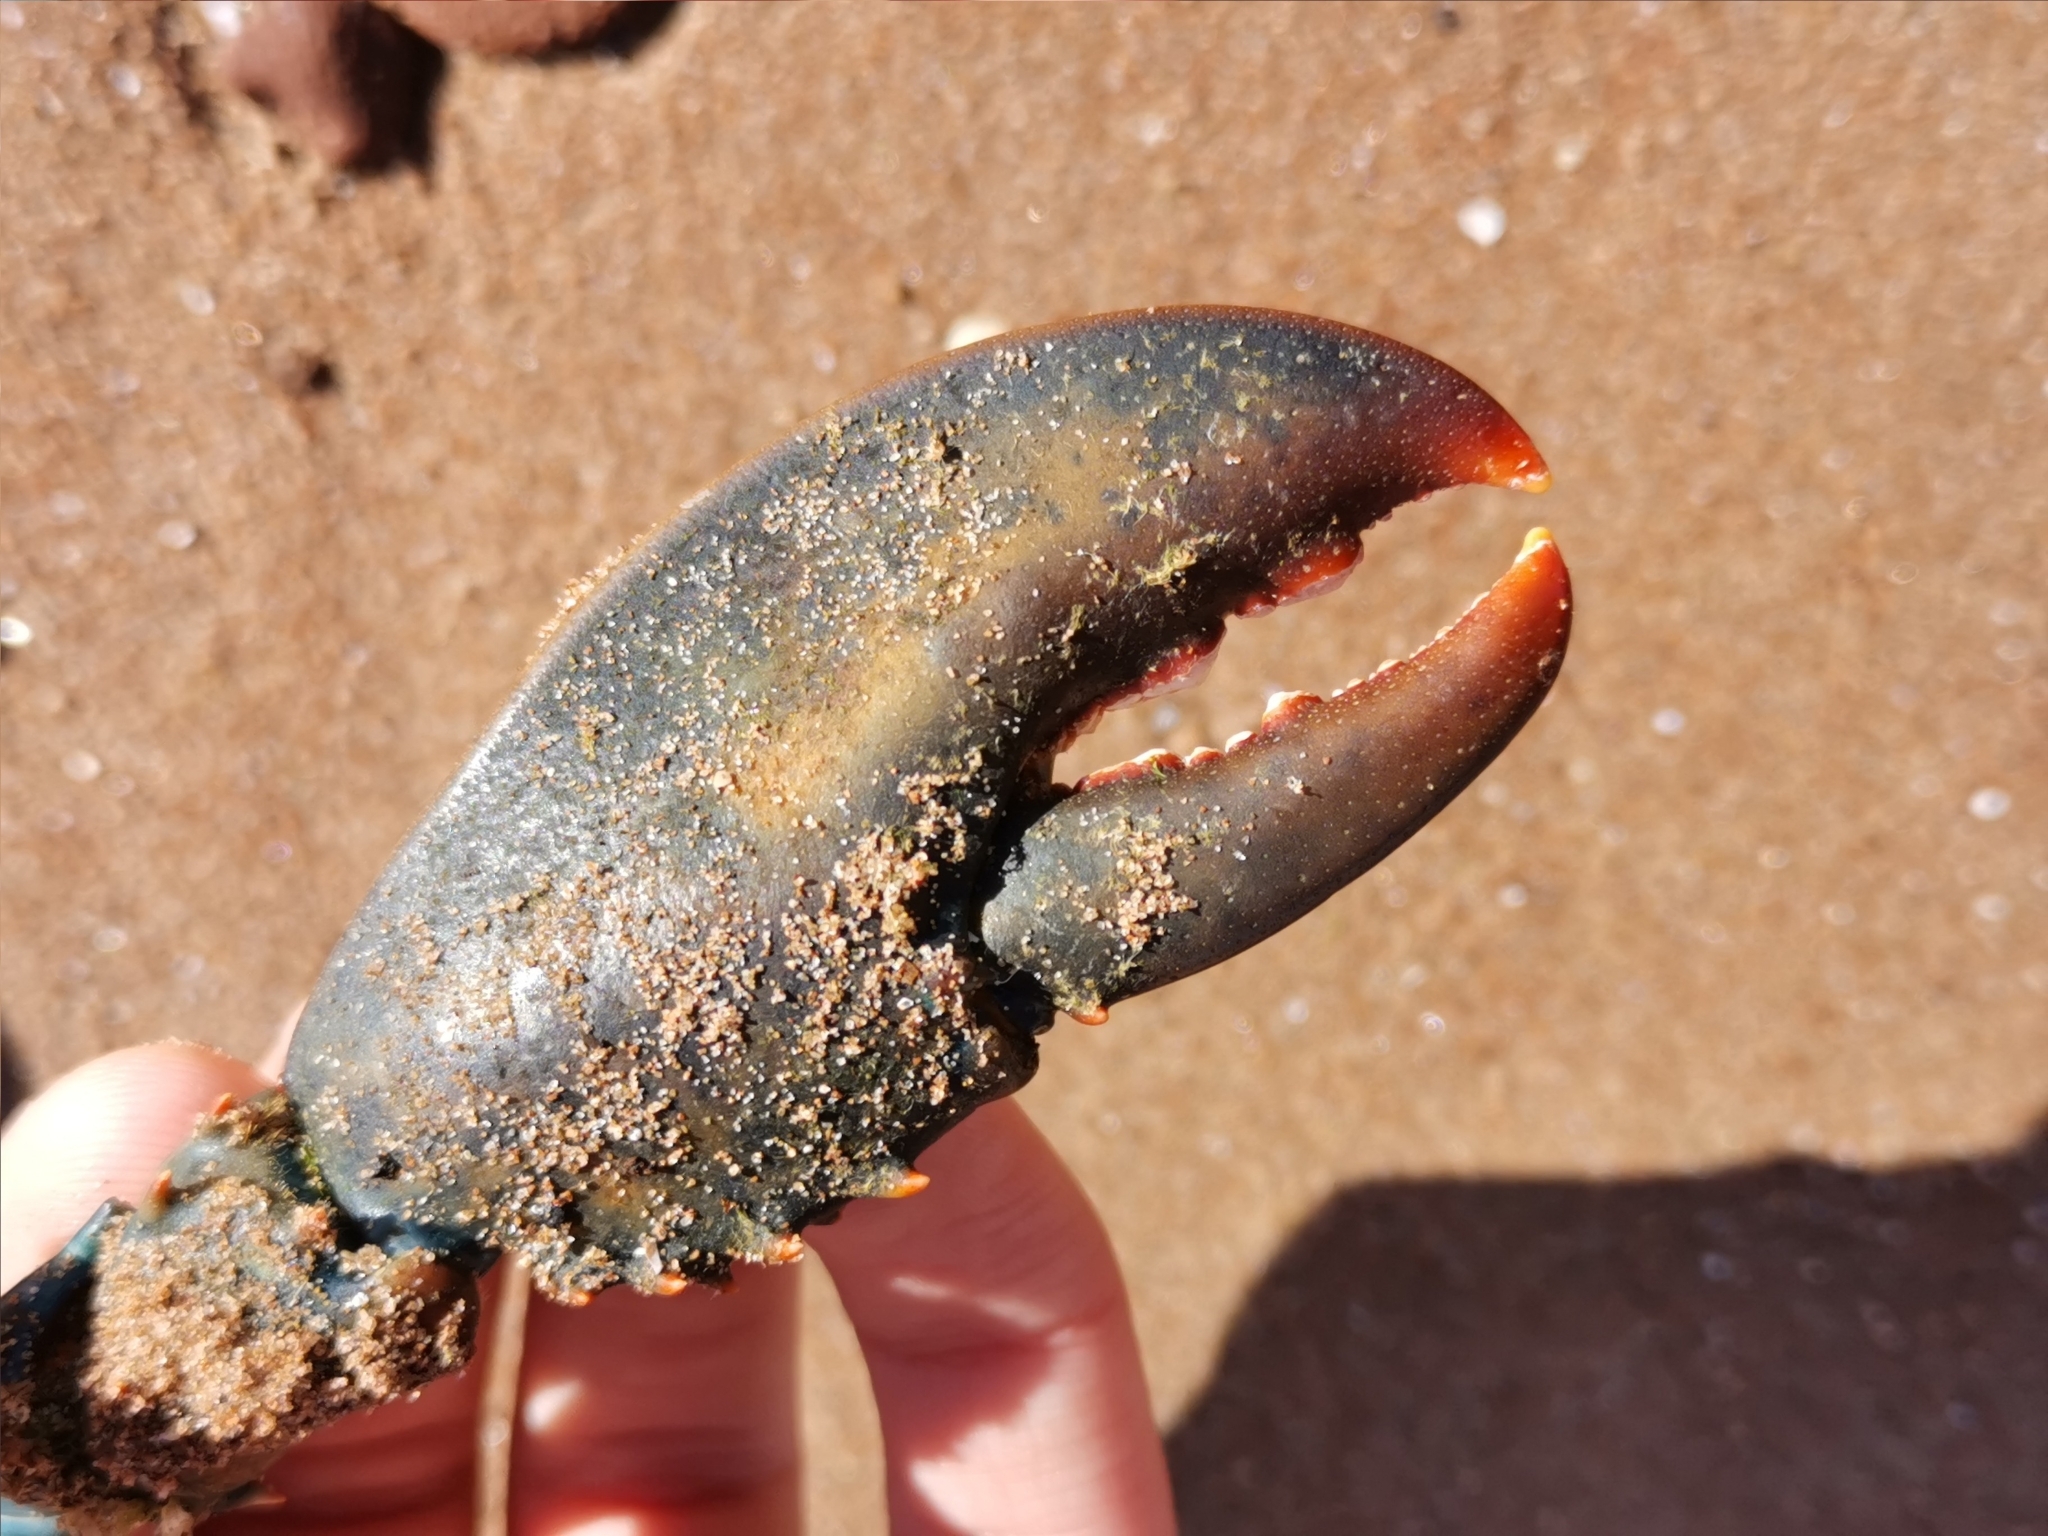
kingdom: Animalia
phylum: Arthropoda
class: Malacostraca
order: Decapoda
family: Nephropidae
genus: Homarus
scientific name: Homarus americanus
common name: American lobster
